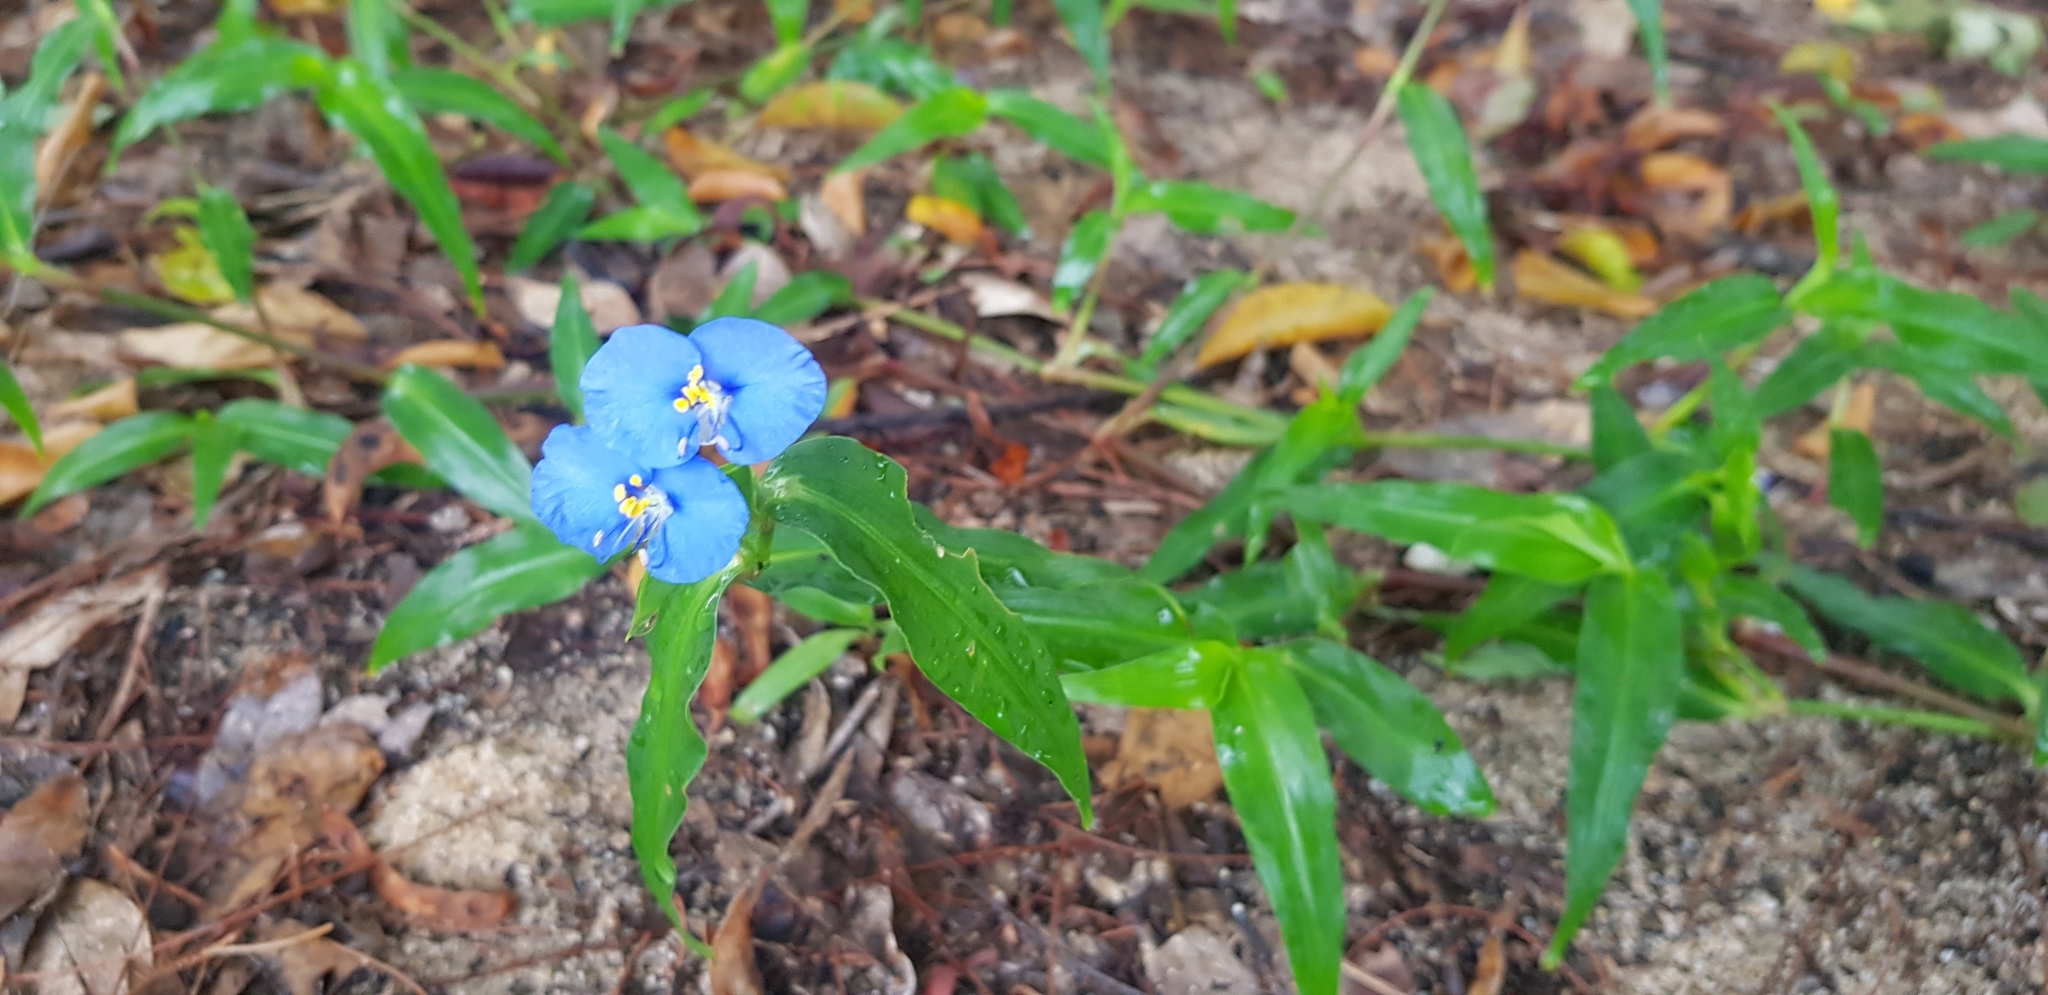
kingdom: Plantae
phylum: Tracheophyta
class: Liliopsida
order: Commelinales
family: Commelinaceae
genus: Commelina
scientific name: Commelina ensifolia
